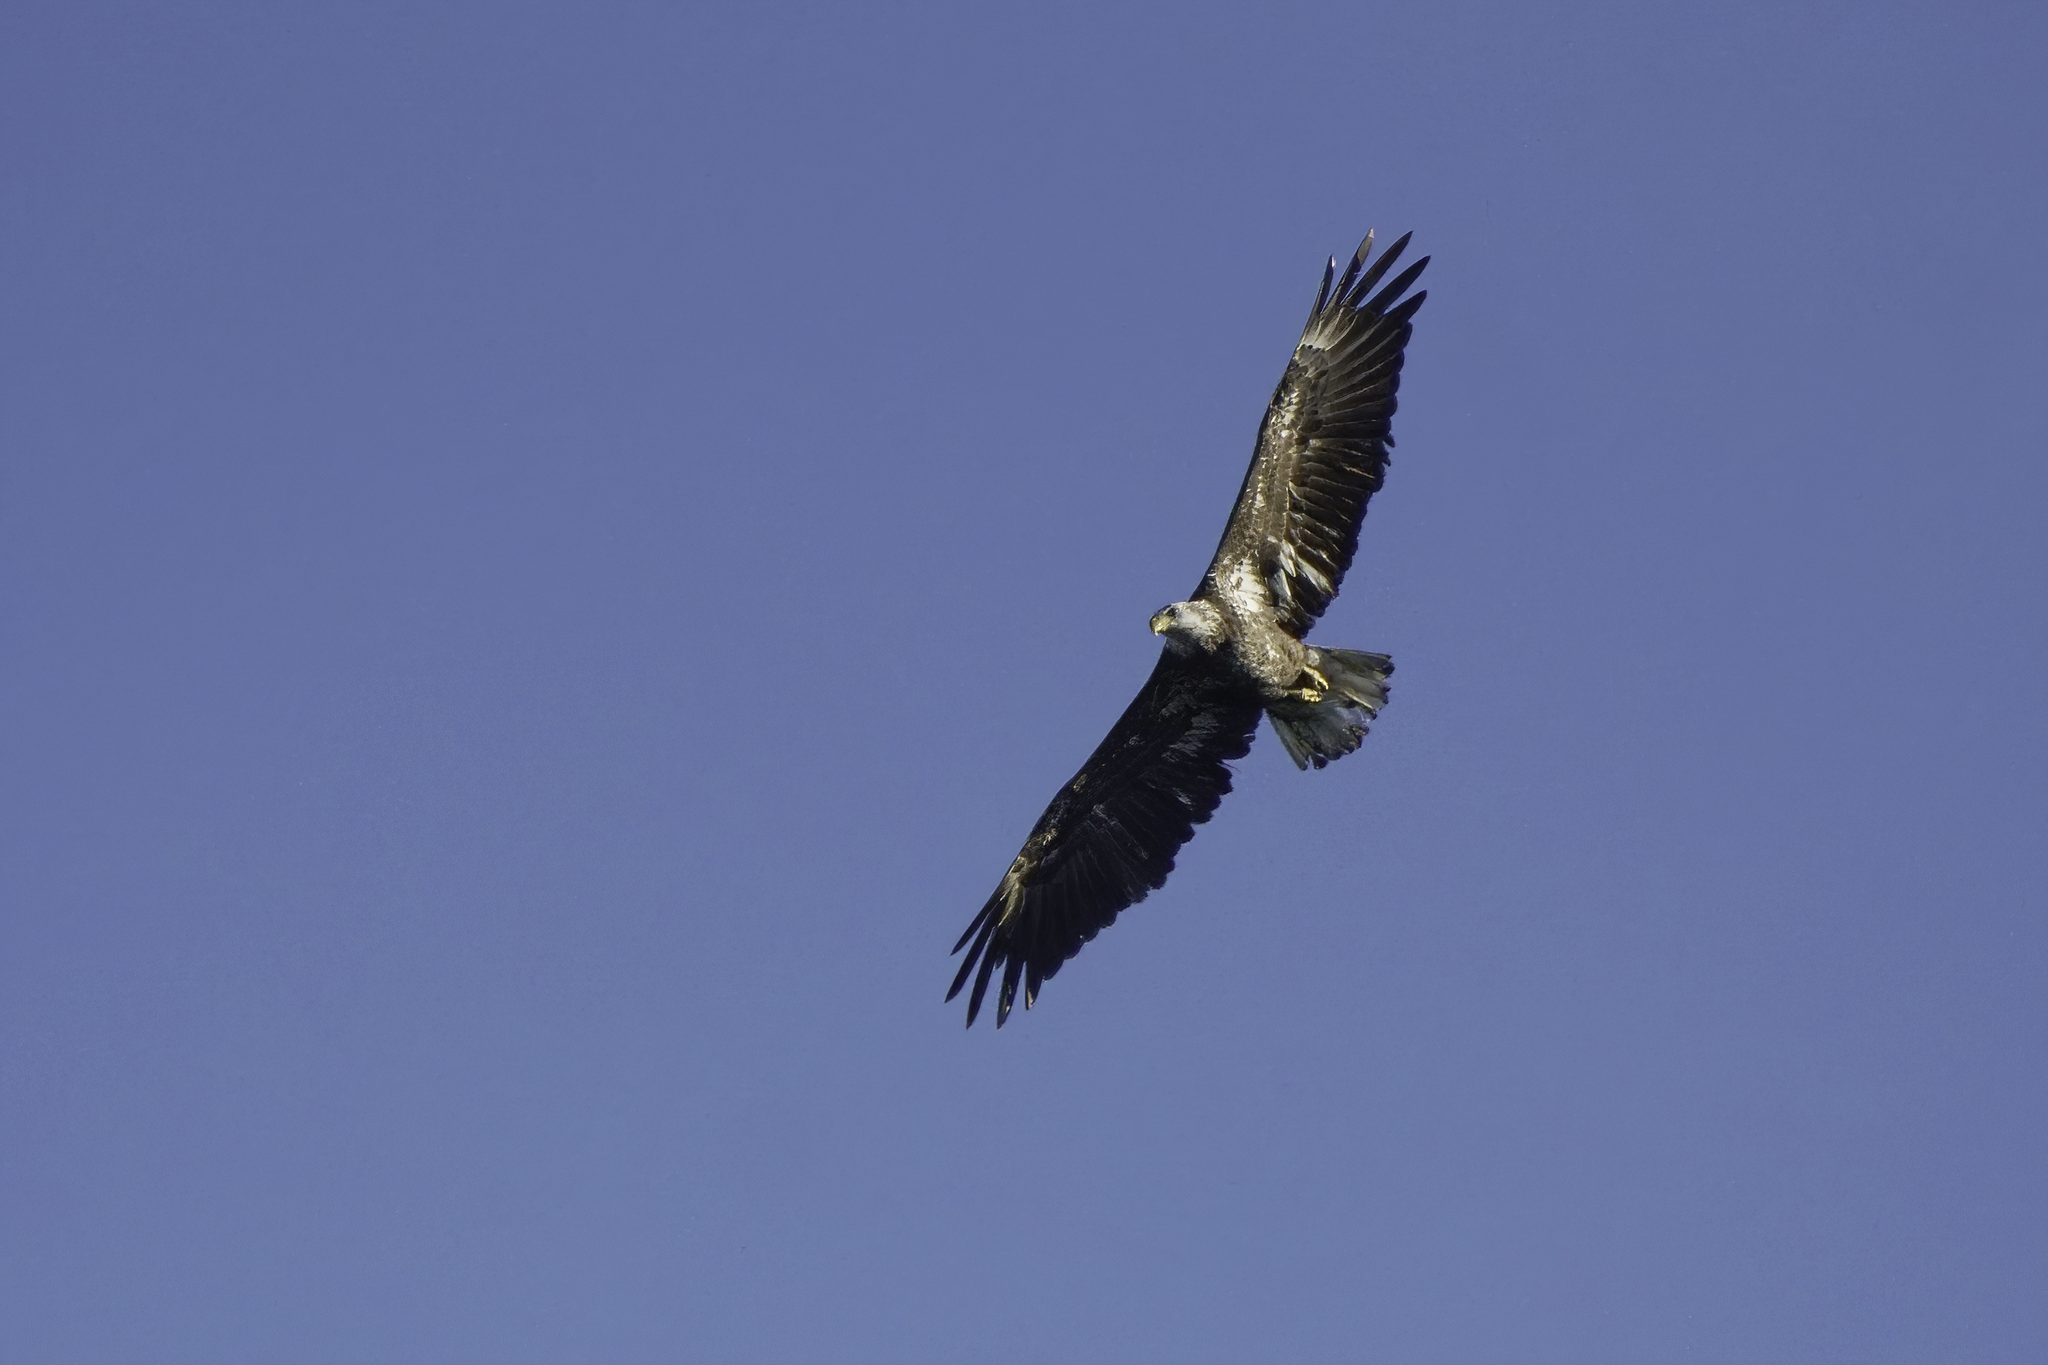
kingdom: Animalia
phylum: Chordata
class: Aves
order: Accipitriformes
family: Accipitridae
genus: Haliaeetus
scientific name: Haliaeetus leucocephalus
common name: Bald eagle
